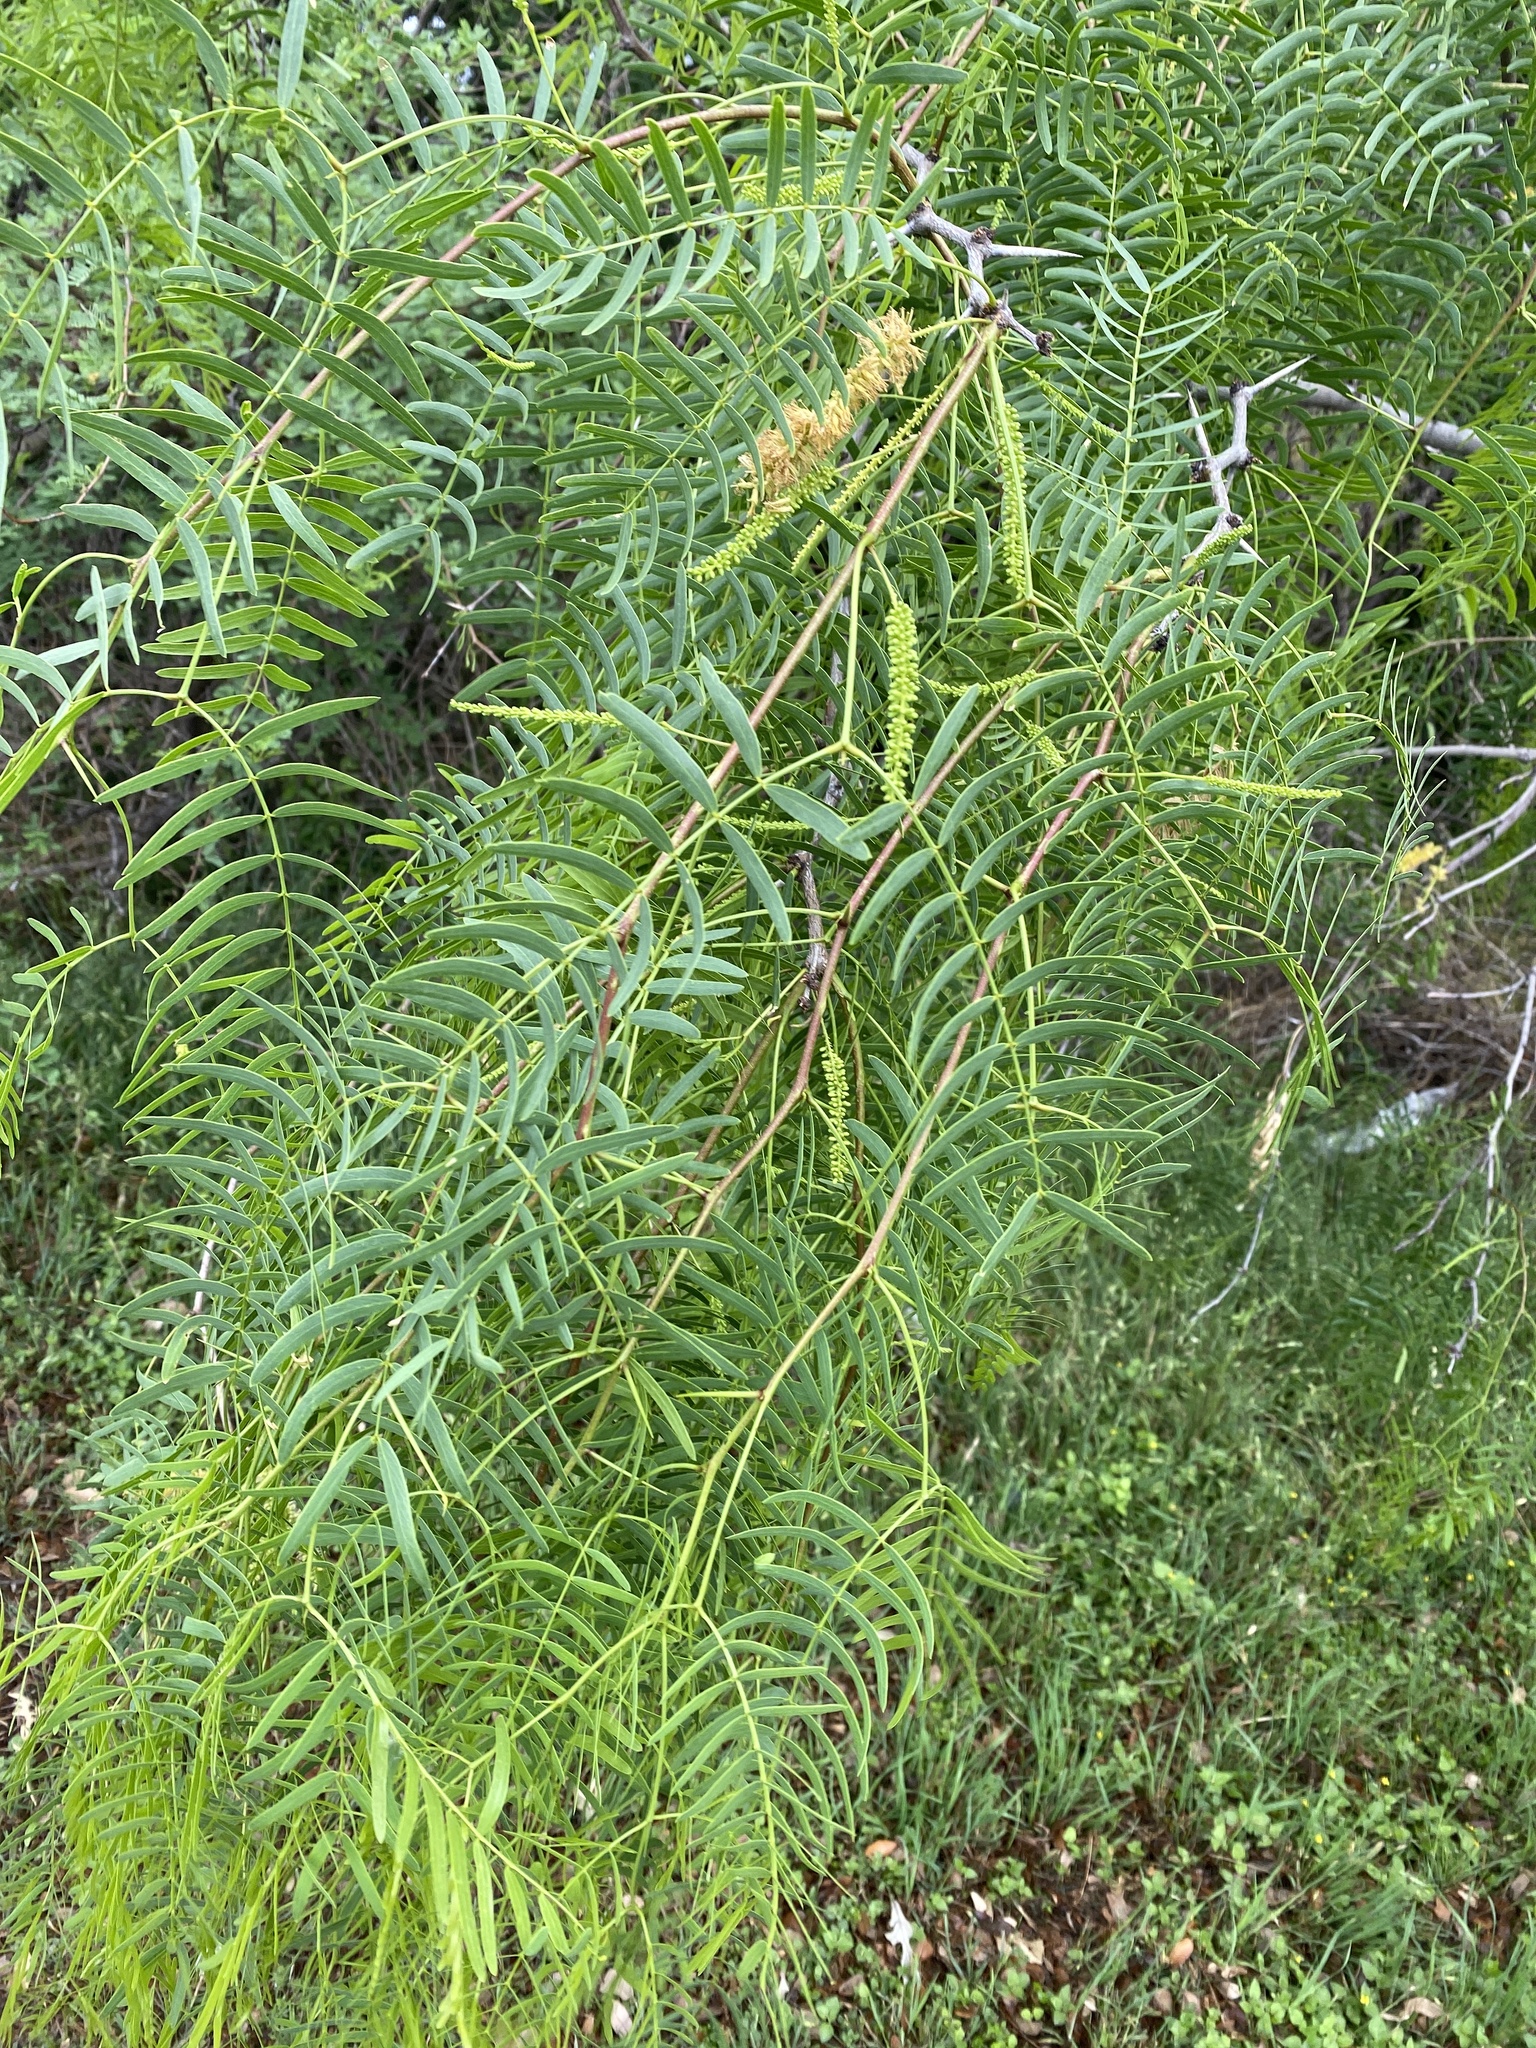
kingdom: Plantae
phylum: Tracheophyta
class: Magnoliopsida
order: Fabales
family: Fabaceae
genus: Prosopis
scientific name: Prosopis glandulosa
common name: Honey mesquite
